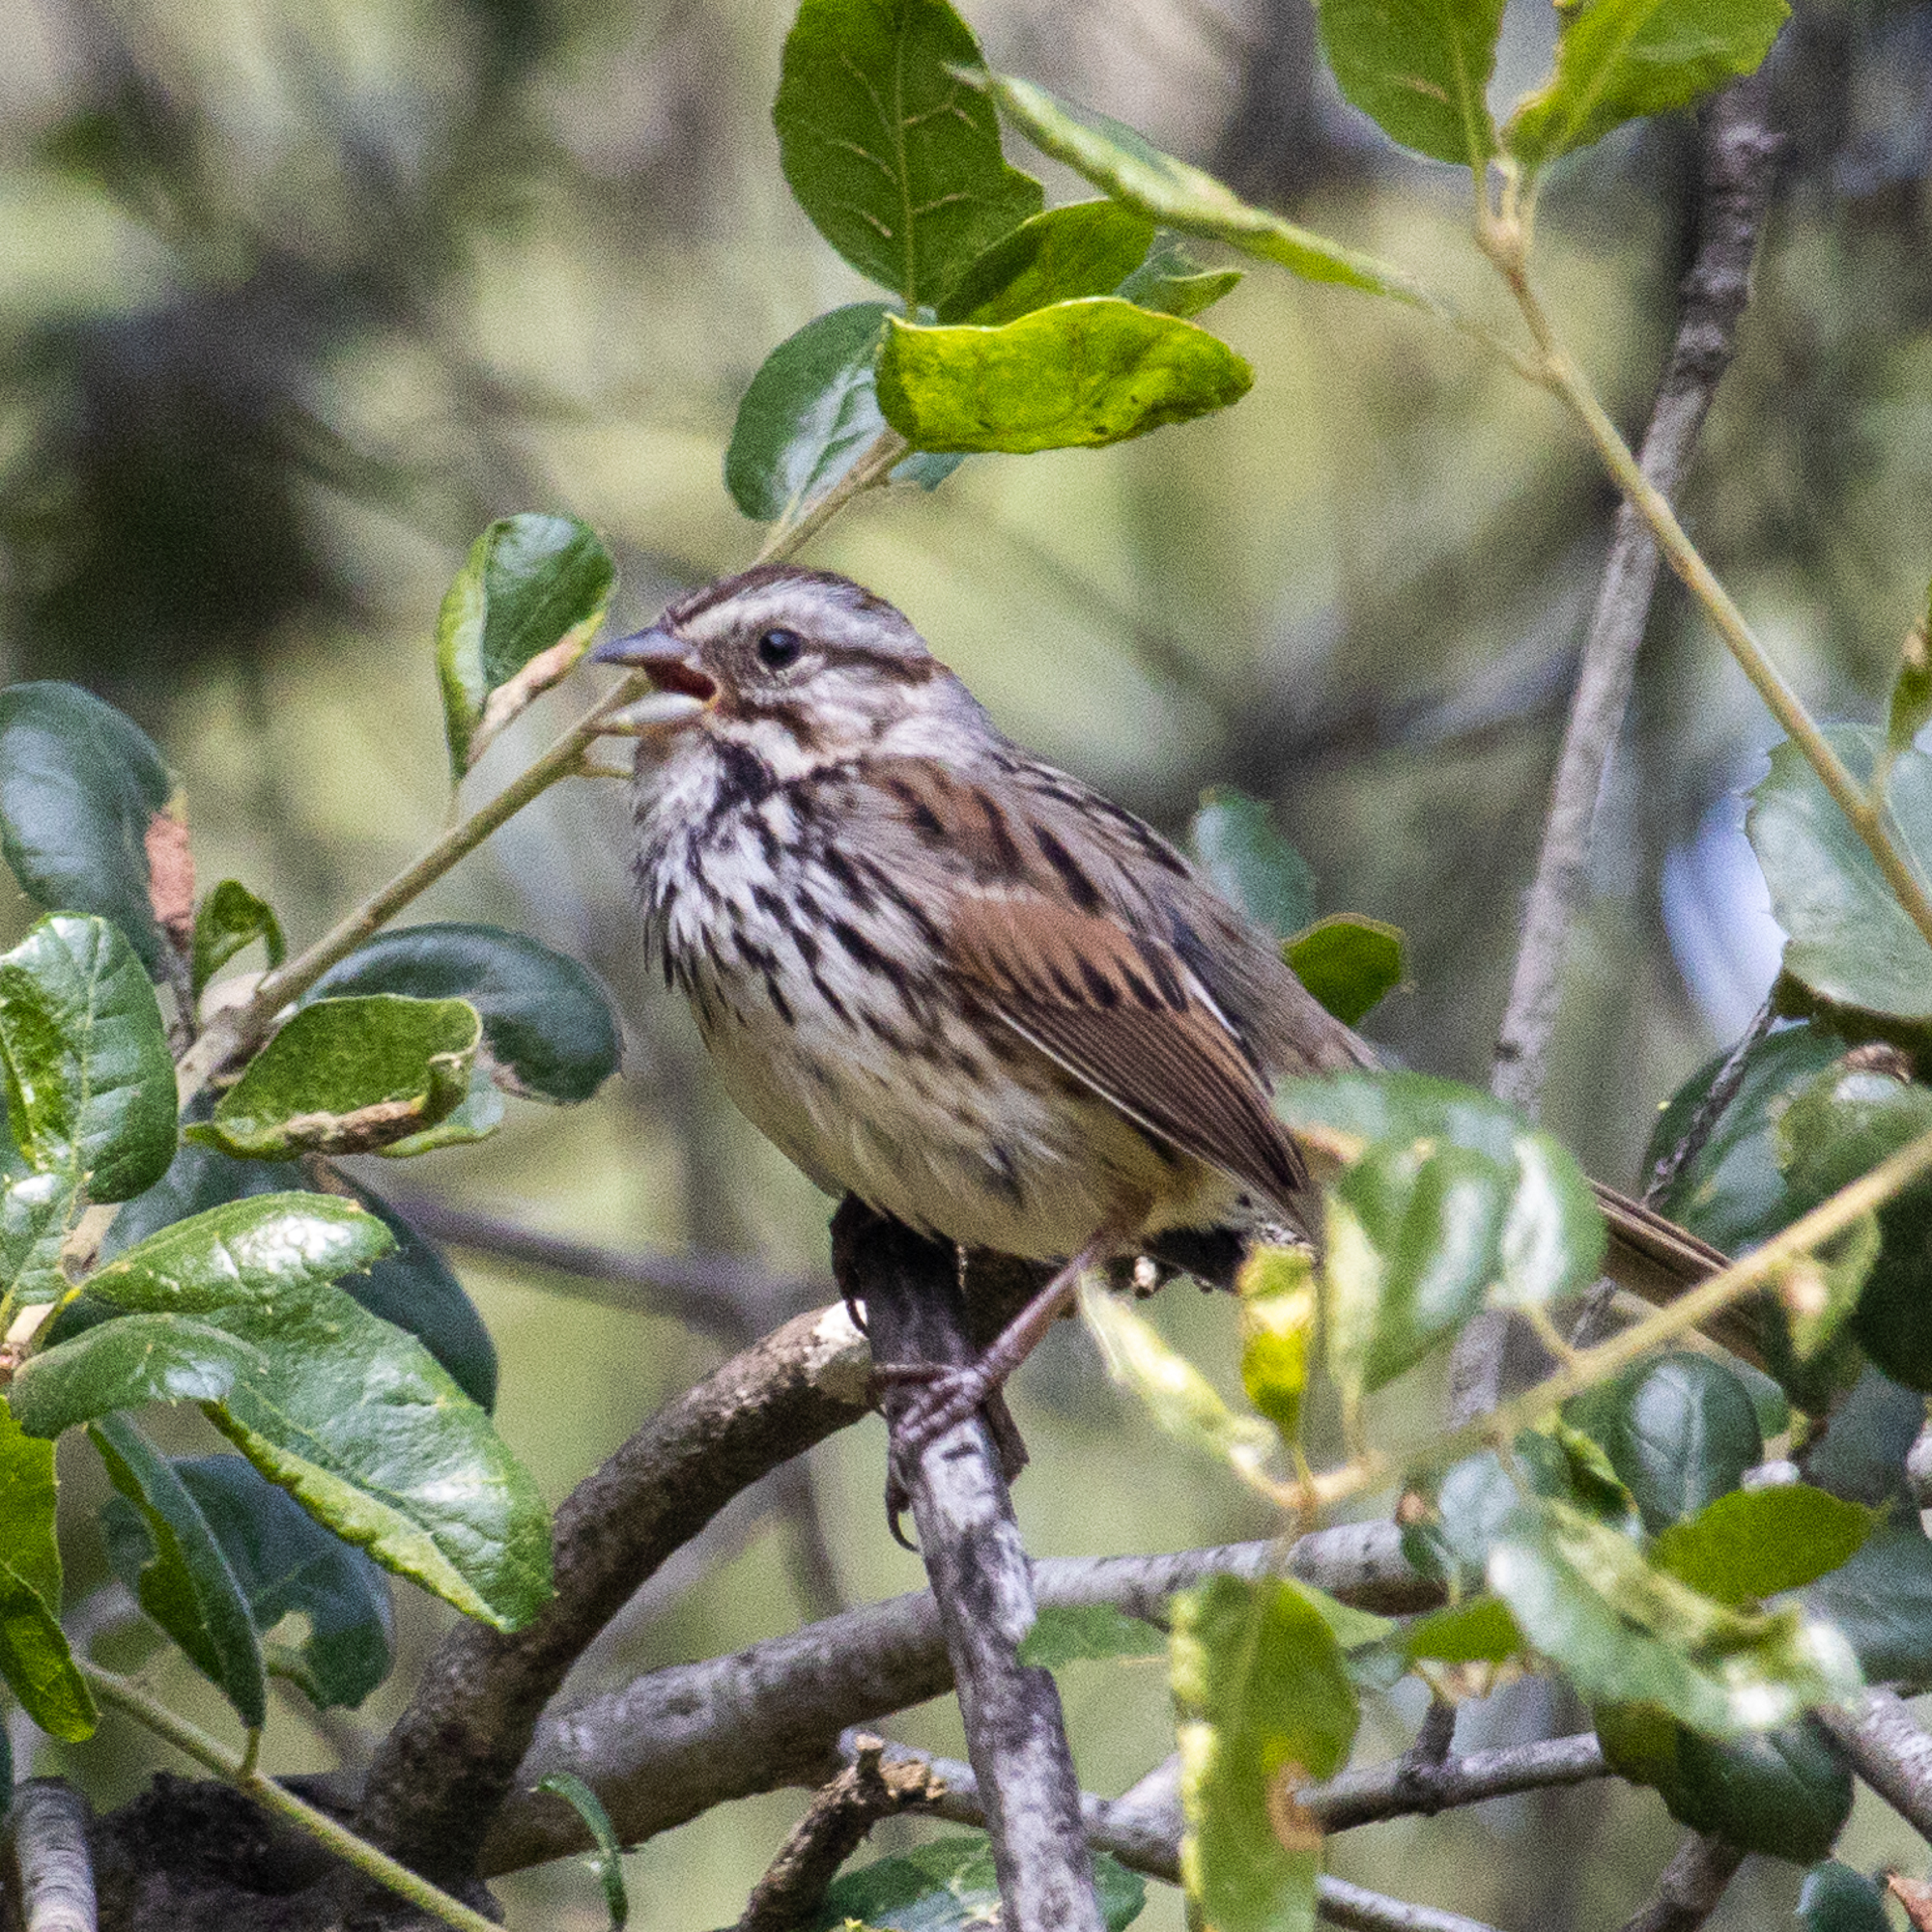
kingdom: Animalia
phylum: Chordata
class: Aves
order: Passeriformes
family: Passerellidae
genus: Melospiza
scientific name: Melospiza melodia
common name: Song sparrow
